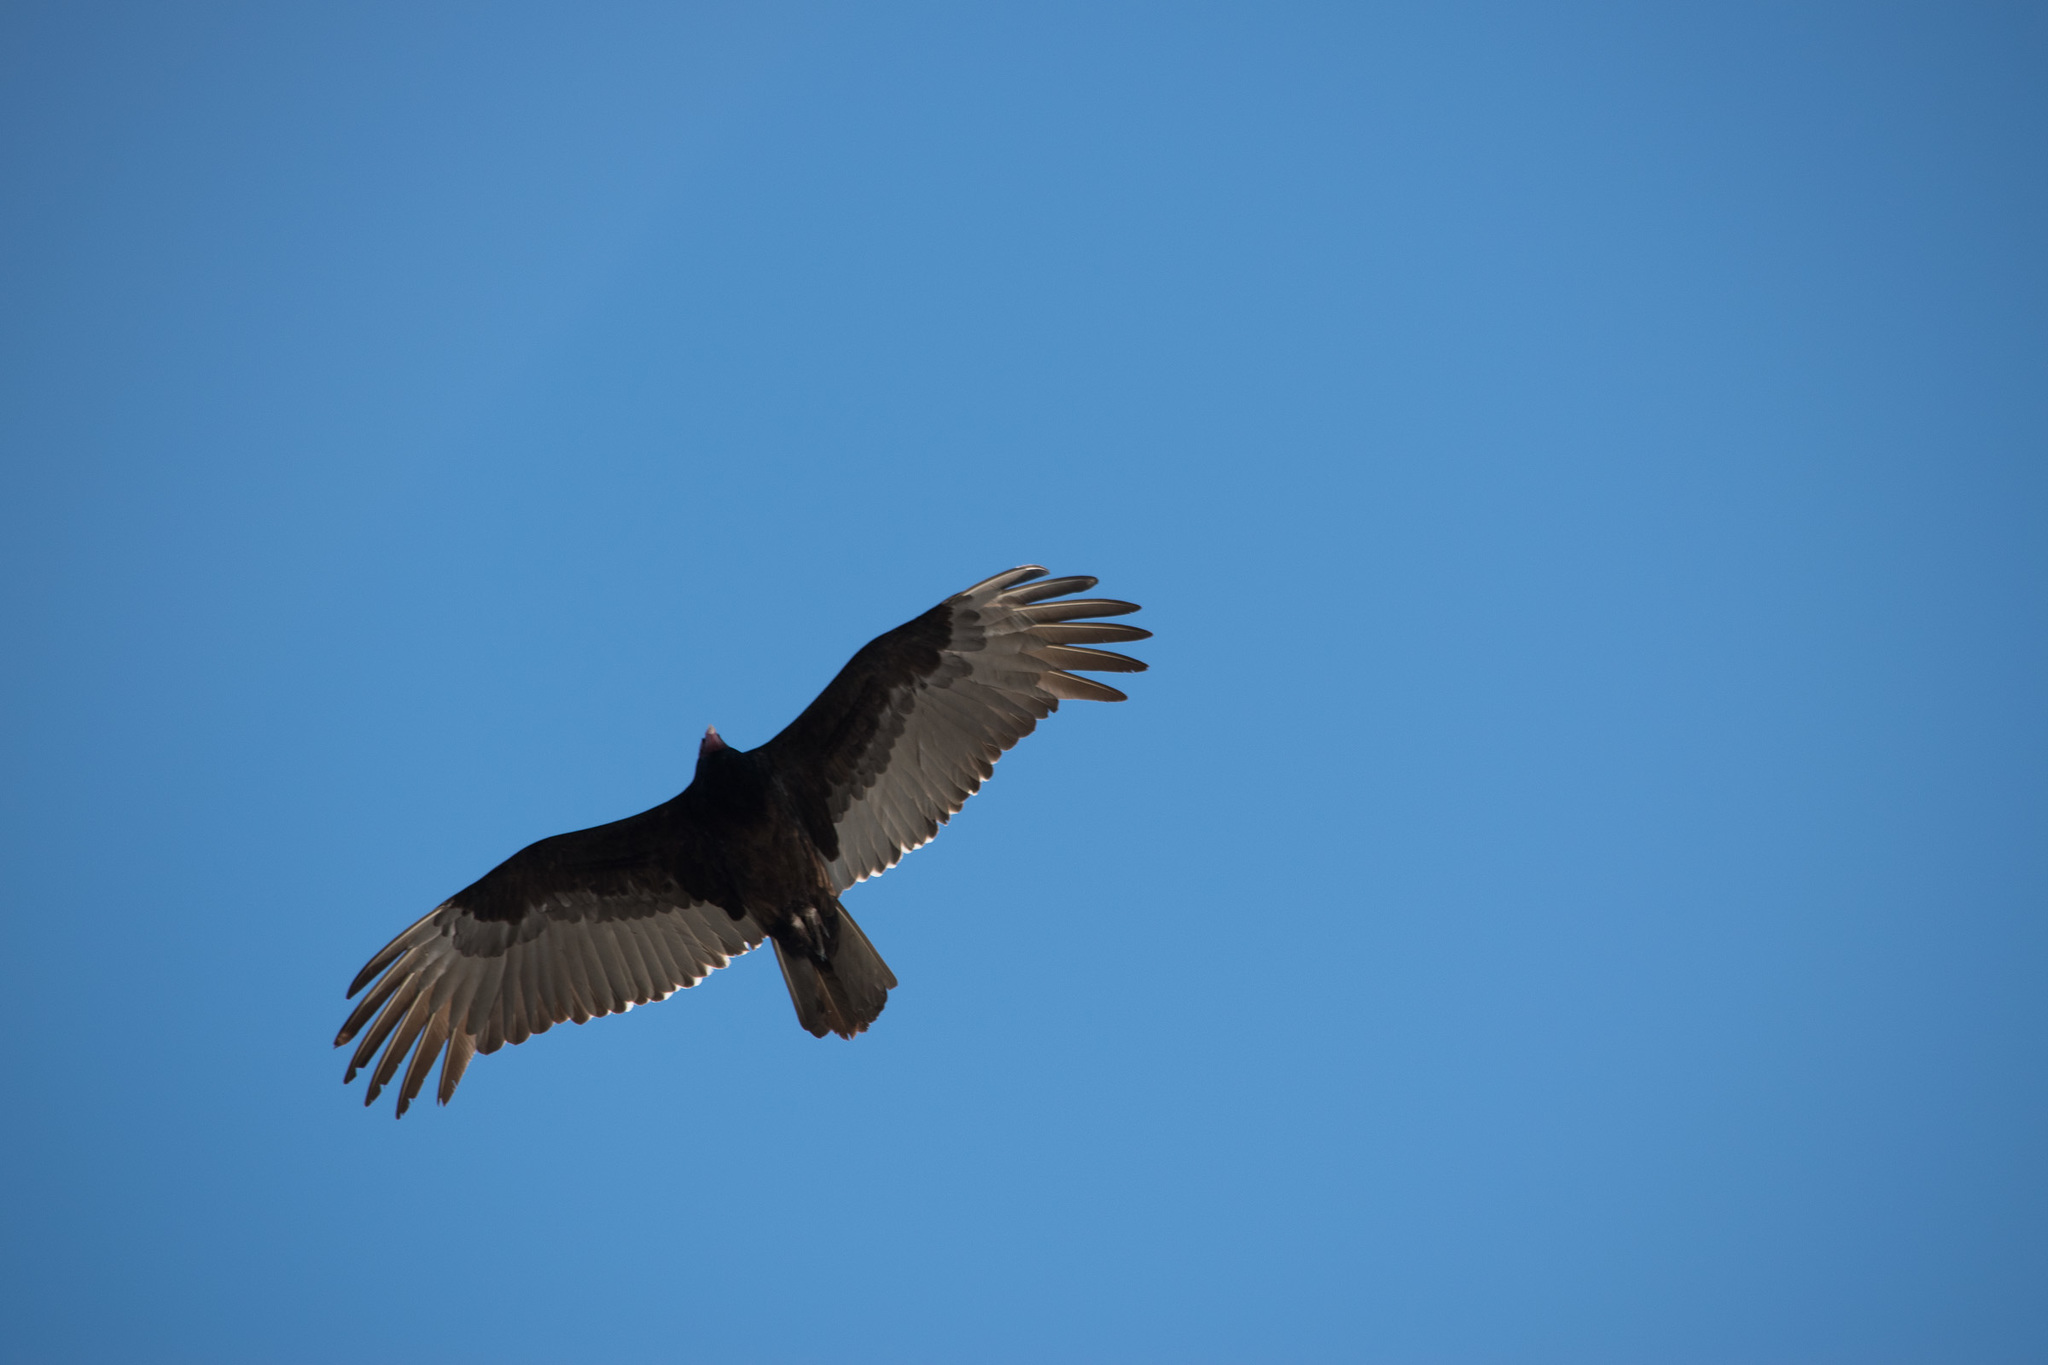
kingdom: Animalia
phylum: Chordata
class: Aves
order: Accipitriformes
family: Cathartidae
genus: Cathartes
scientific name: Cathartes aura
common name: Turkey vulture
